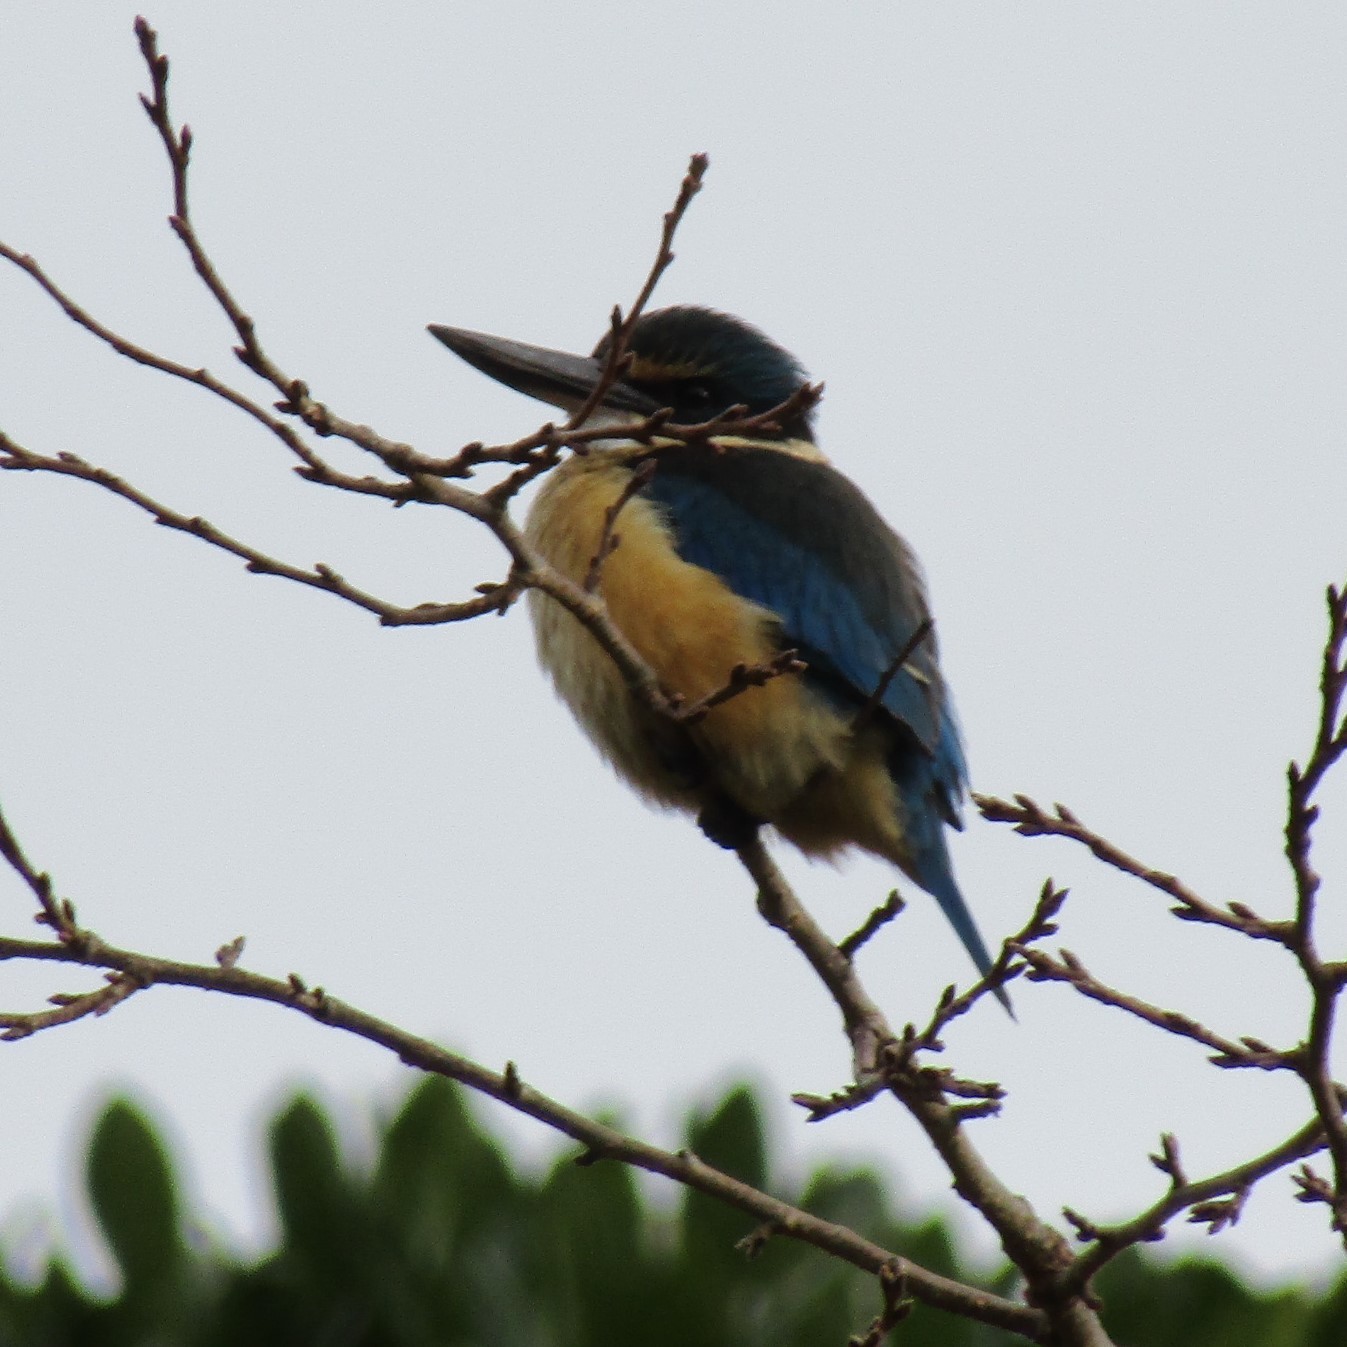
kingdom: Animalia
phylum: Chordata
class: Aves
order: Coraciiformes
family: Alcedinidae
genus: Todiramphus
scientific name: Todiramphus sanctus
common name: Sacred kingfisher
